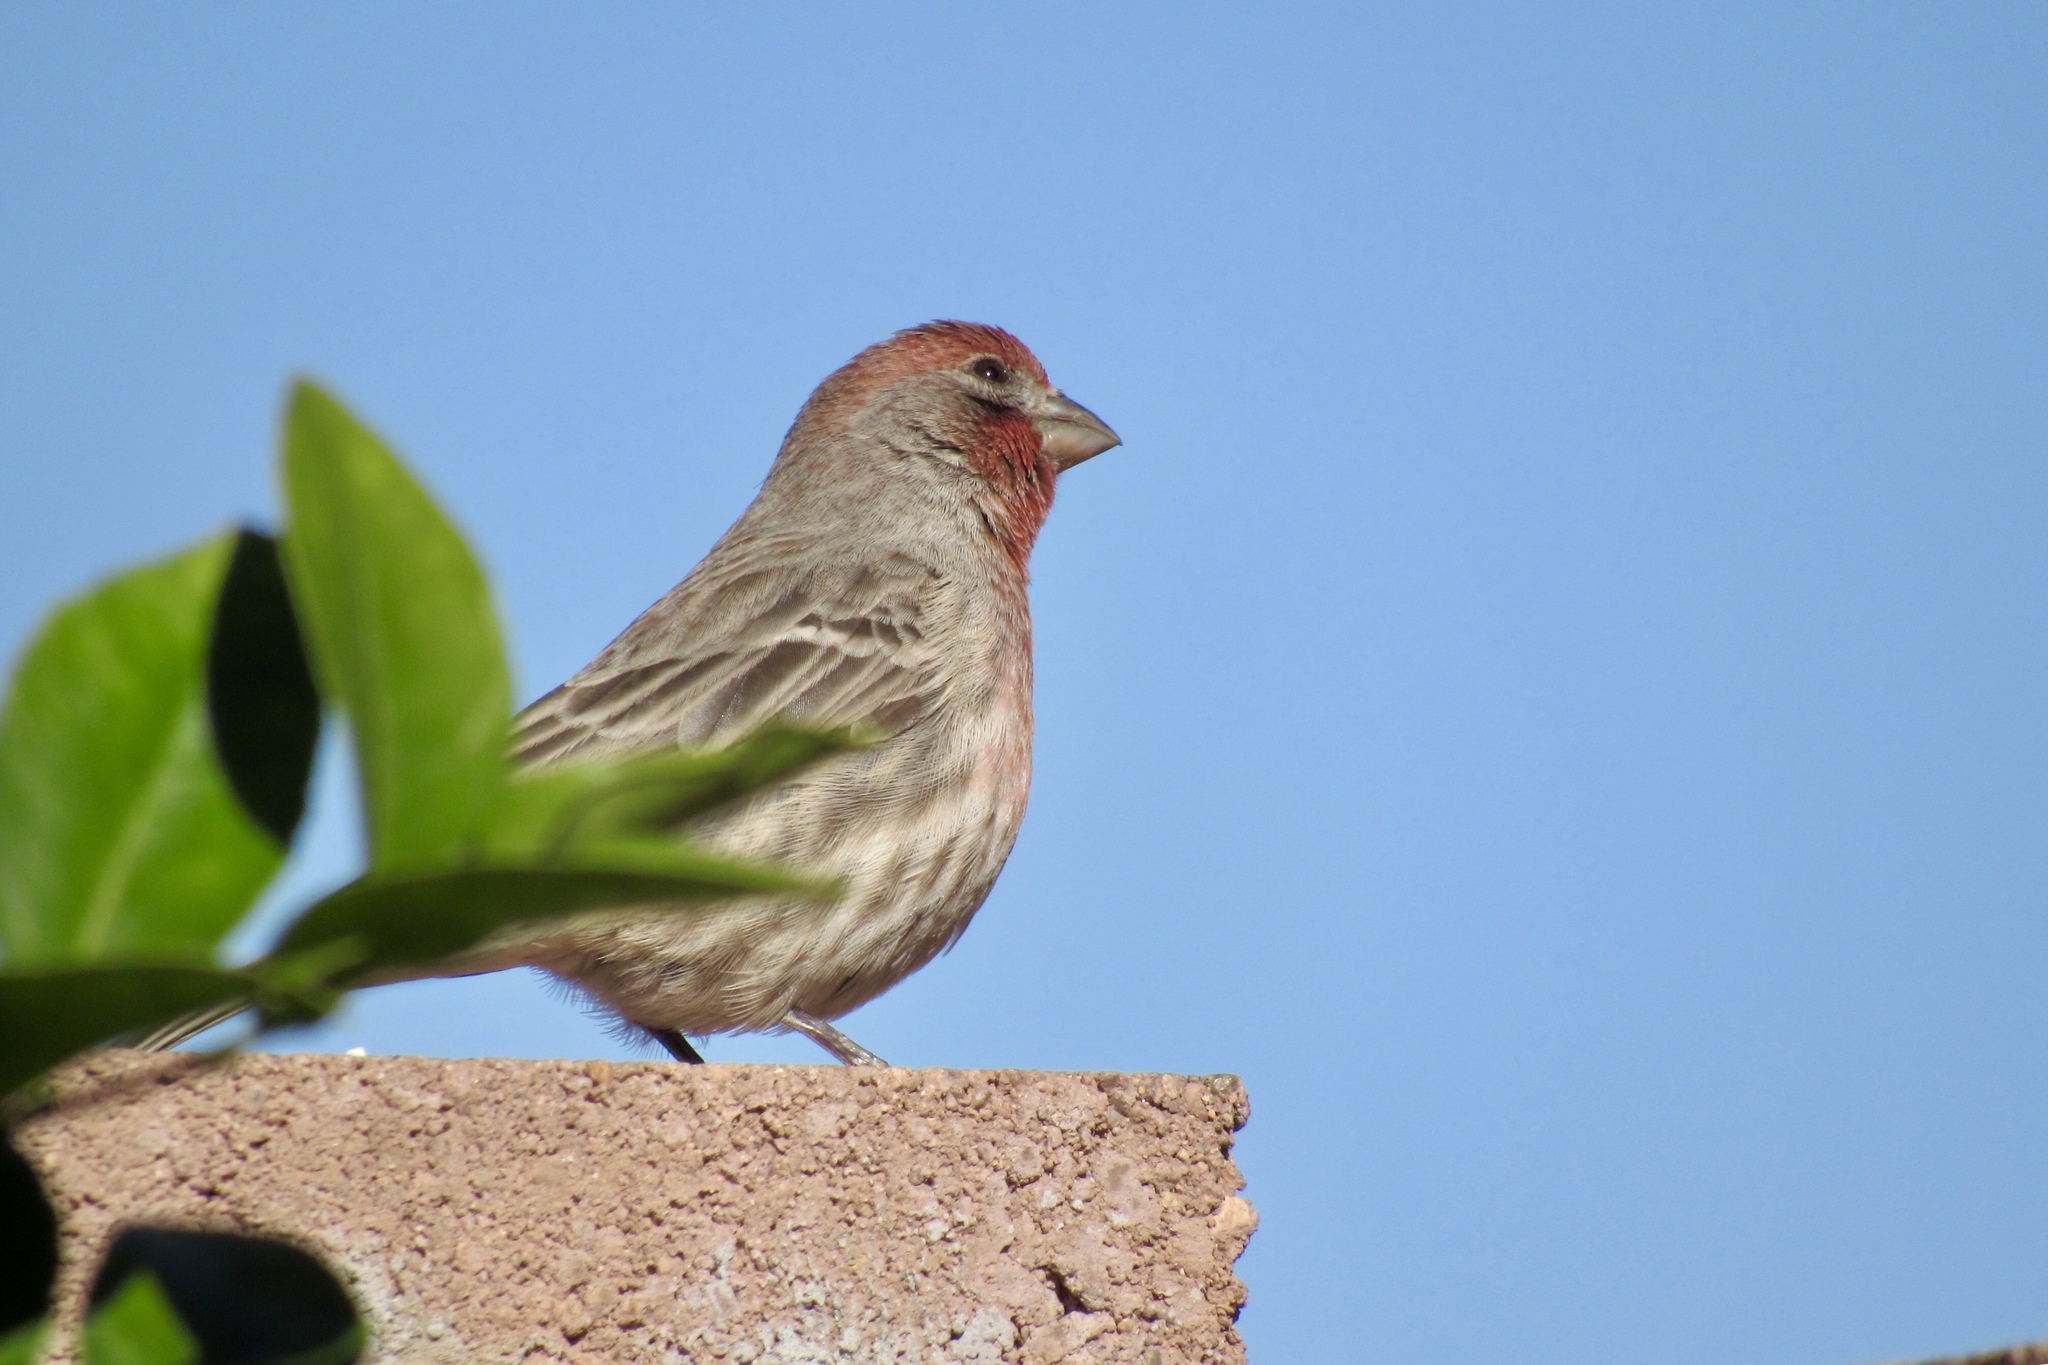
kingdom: Animalia
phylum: Chordata
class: Aves
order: Passeriformes
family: Fringillidae
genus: Haemorhous
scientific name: Haemorhous mexicanus
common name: House finch
